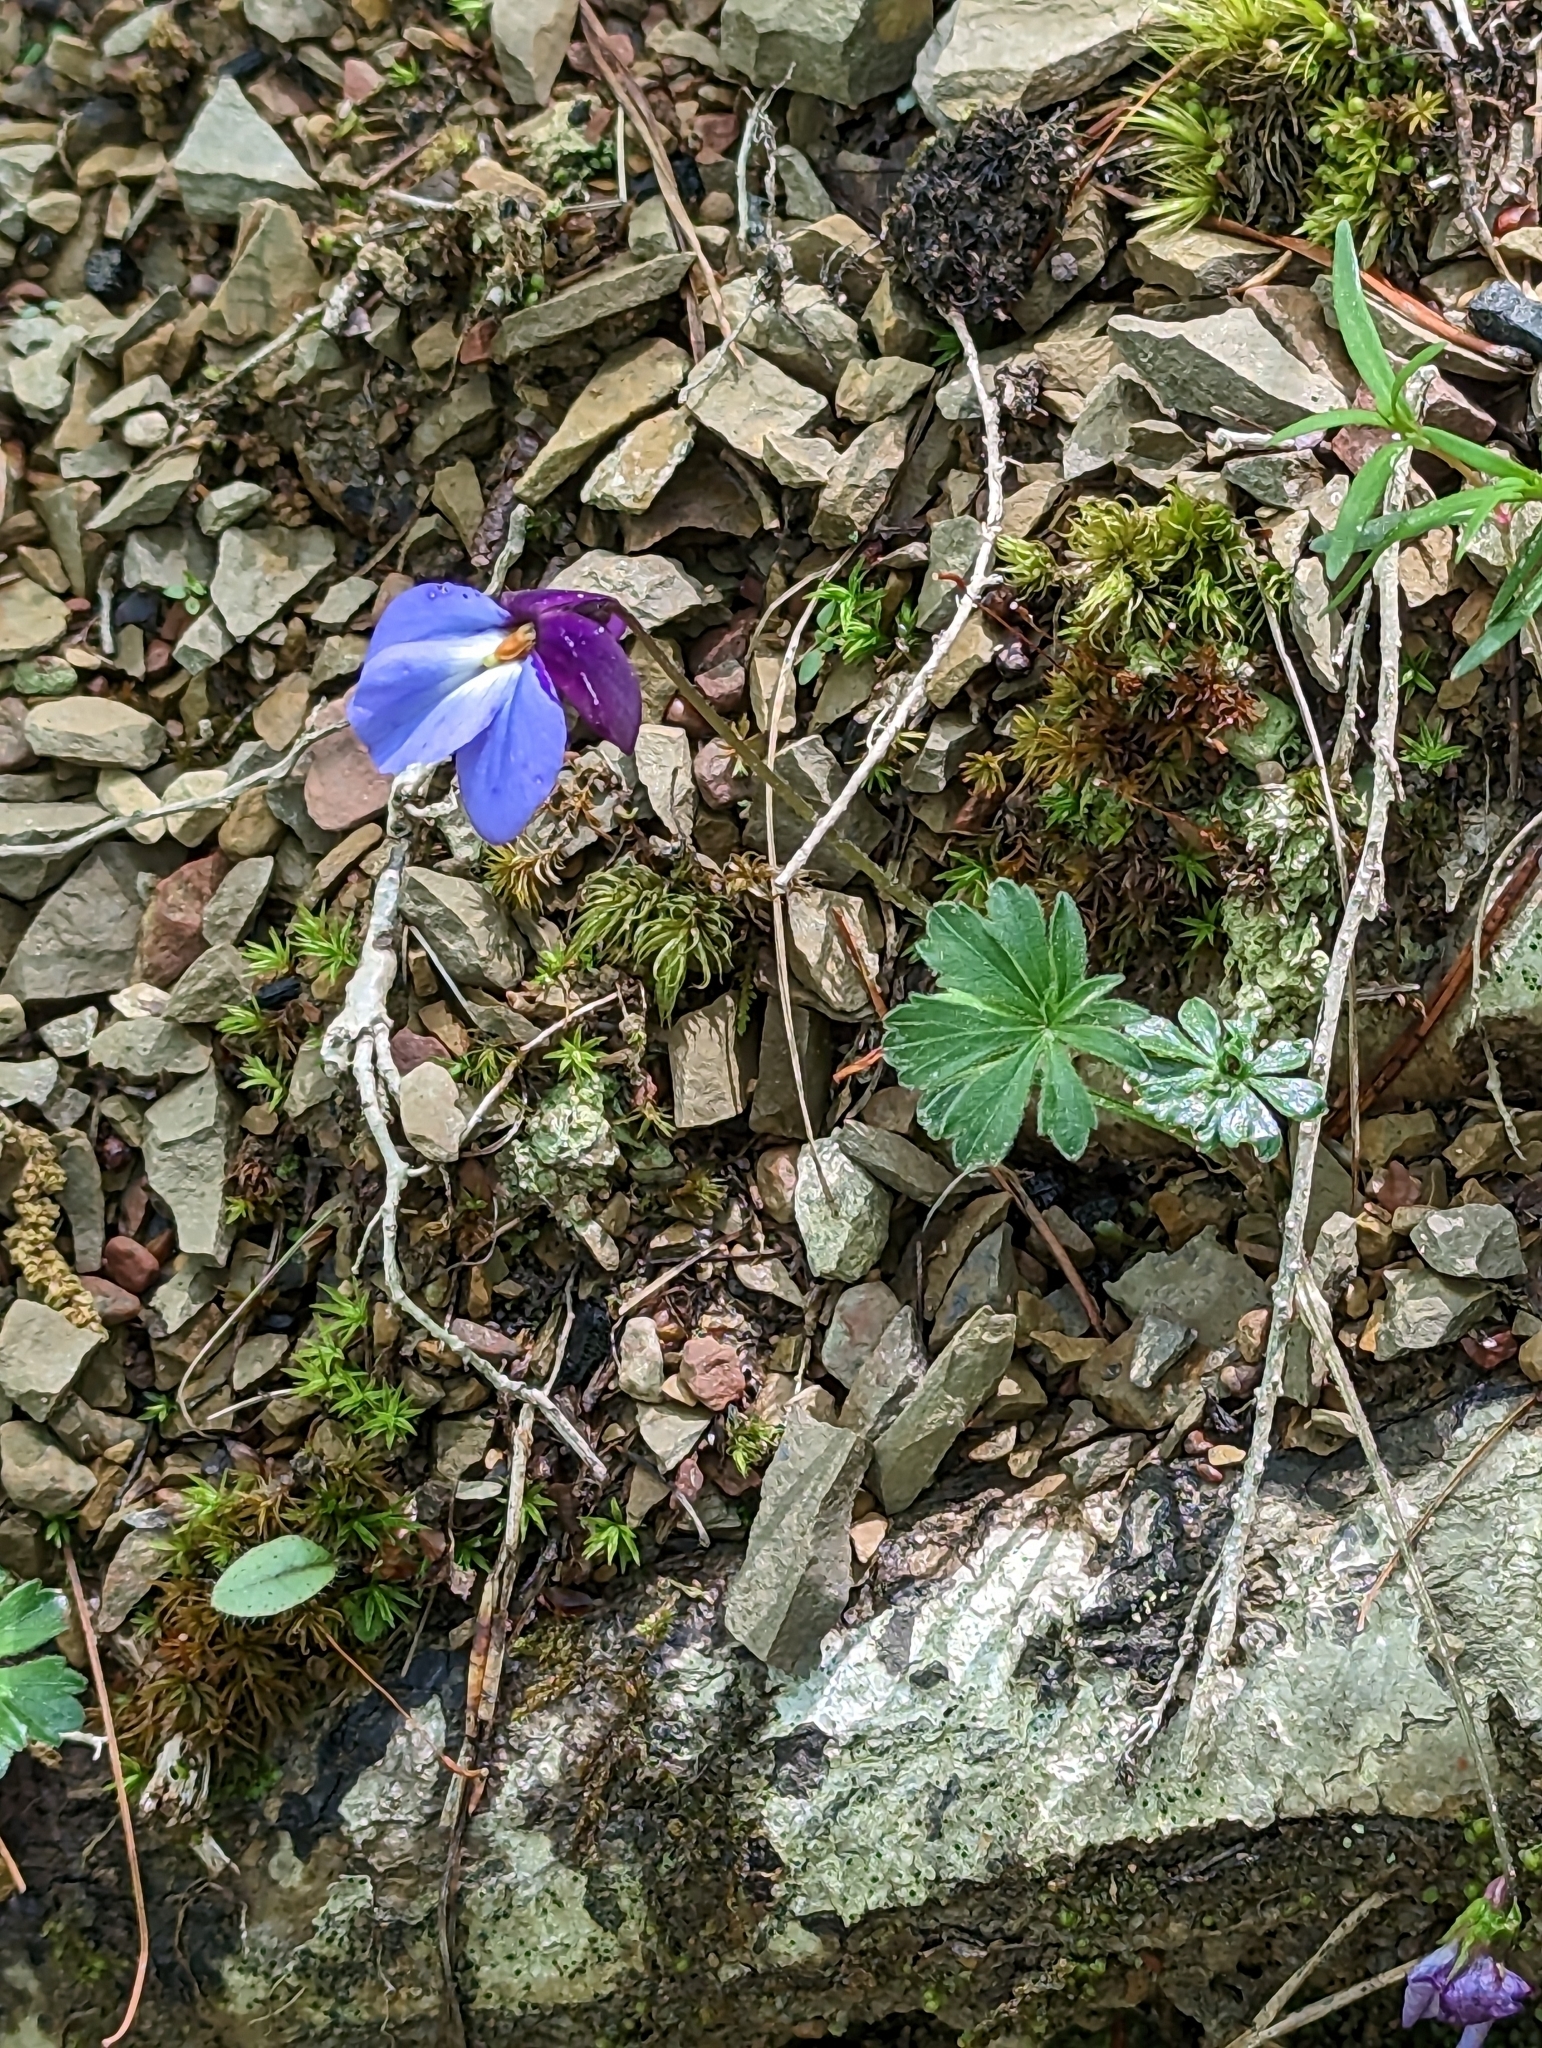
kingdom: Plantae
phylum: Tracheophyta
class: Magnoliopsida
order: Malpighiales
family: Violaceae
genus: Viola
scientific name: Viola pedata
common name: Pansy violet
